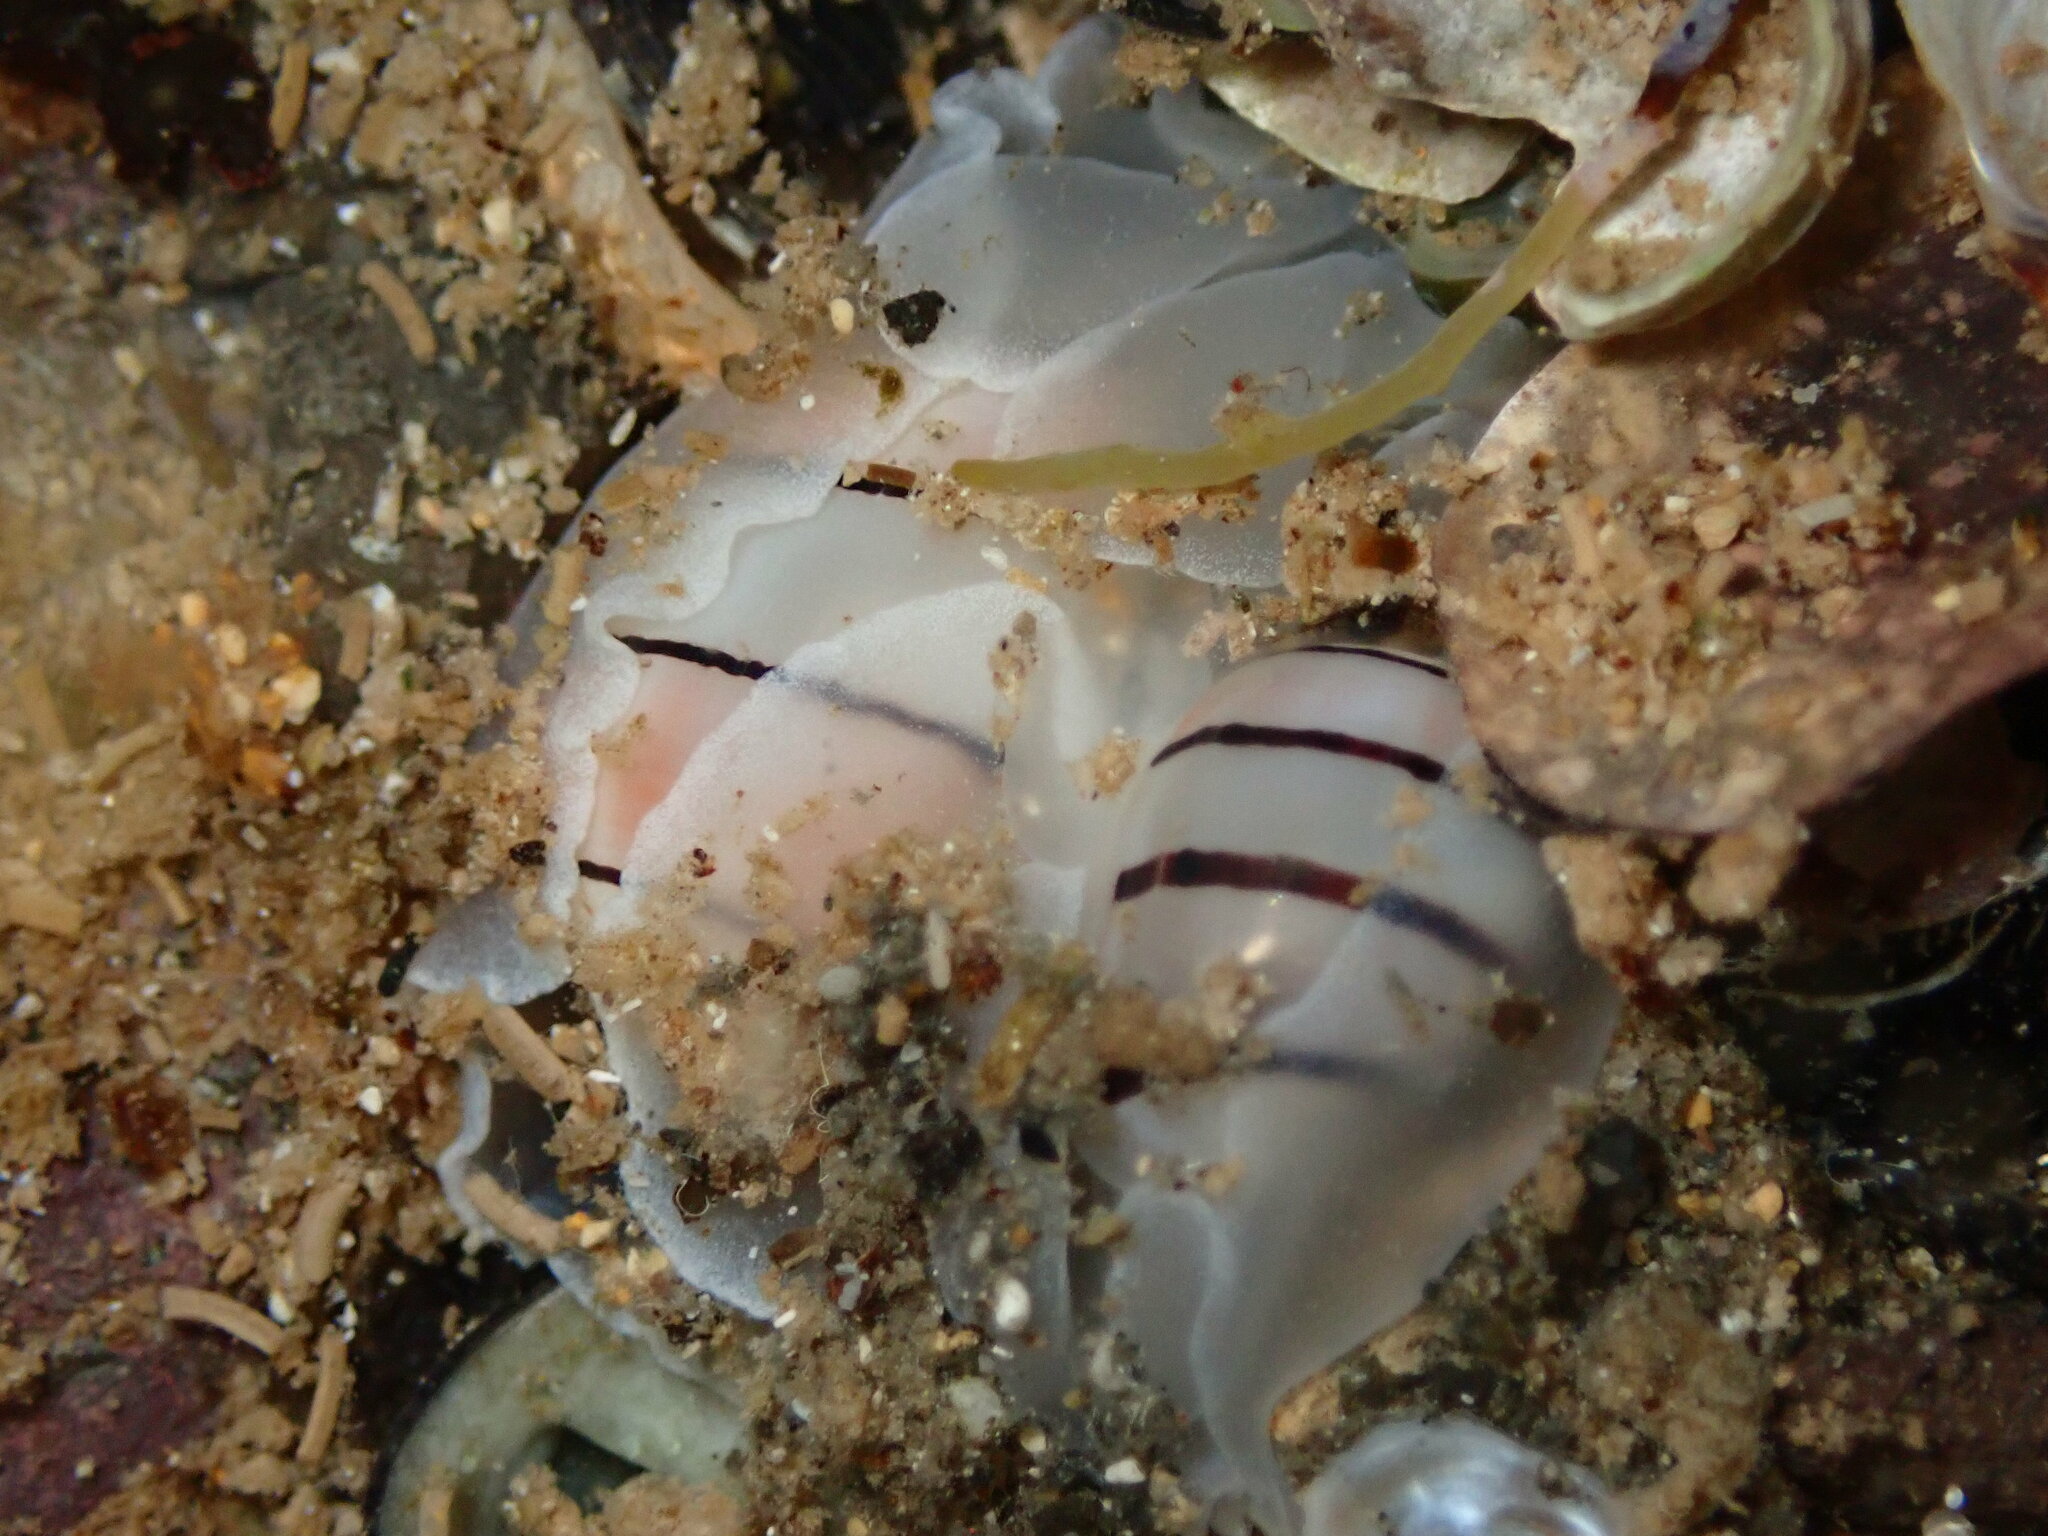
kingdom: Animalia
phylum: Mollusca
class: Gastropoda
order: Cephalaspidea
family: Aplustridae
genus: Aplustrum
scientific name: Aplustrum amplustre
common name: Royal paperbubble
